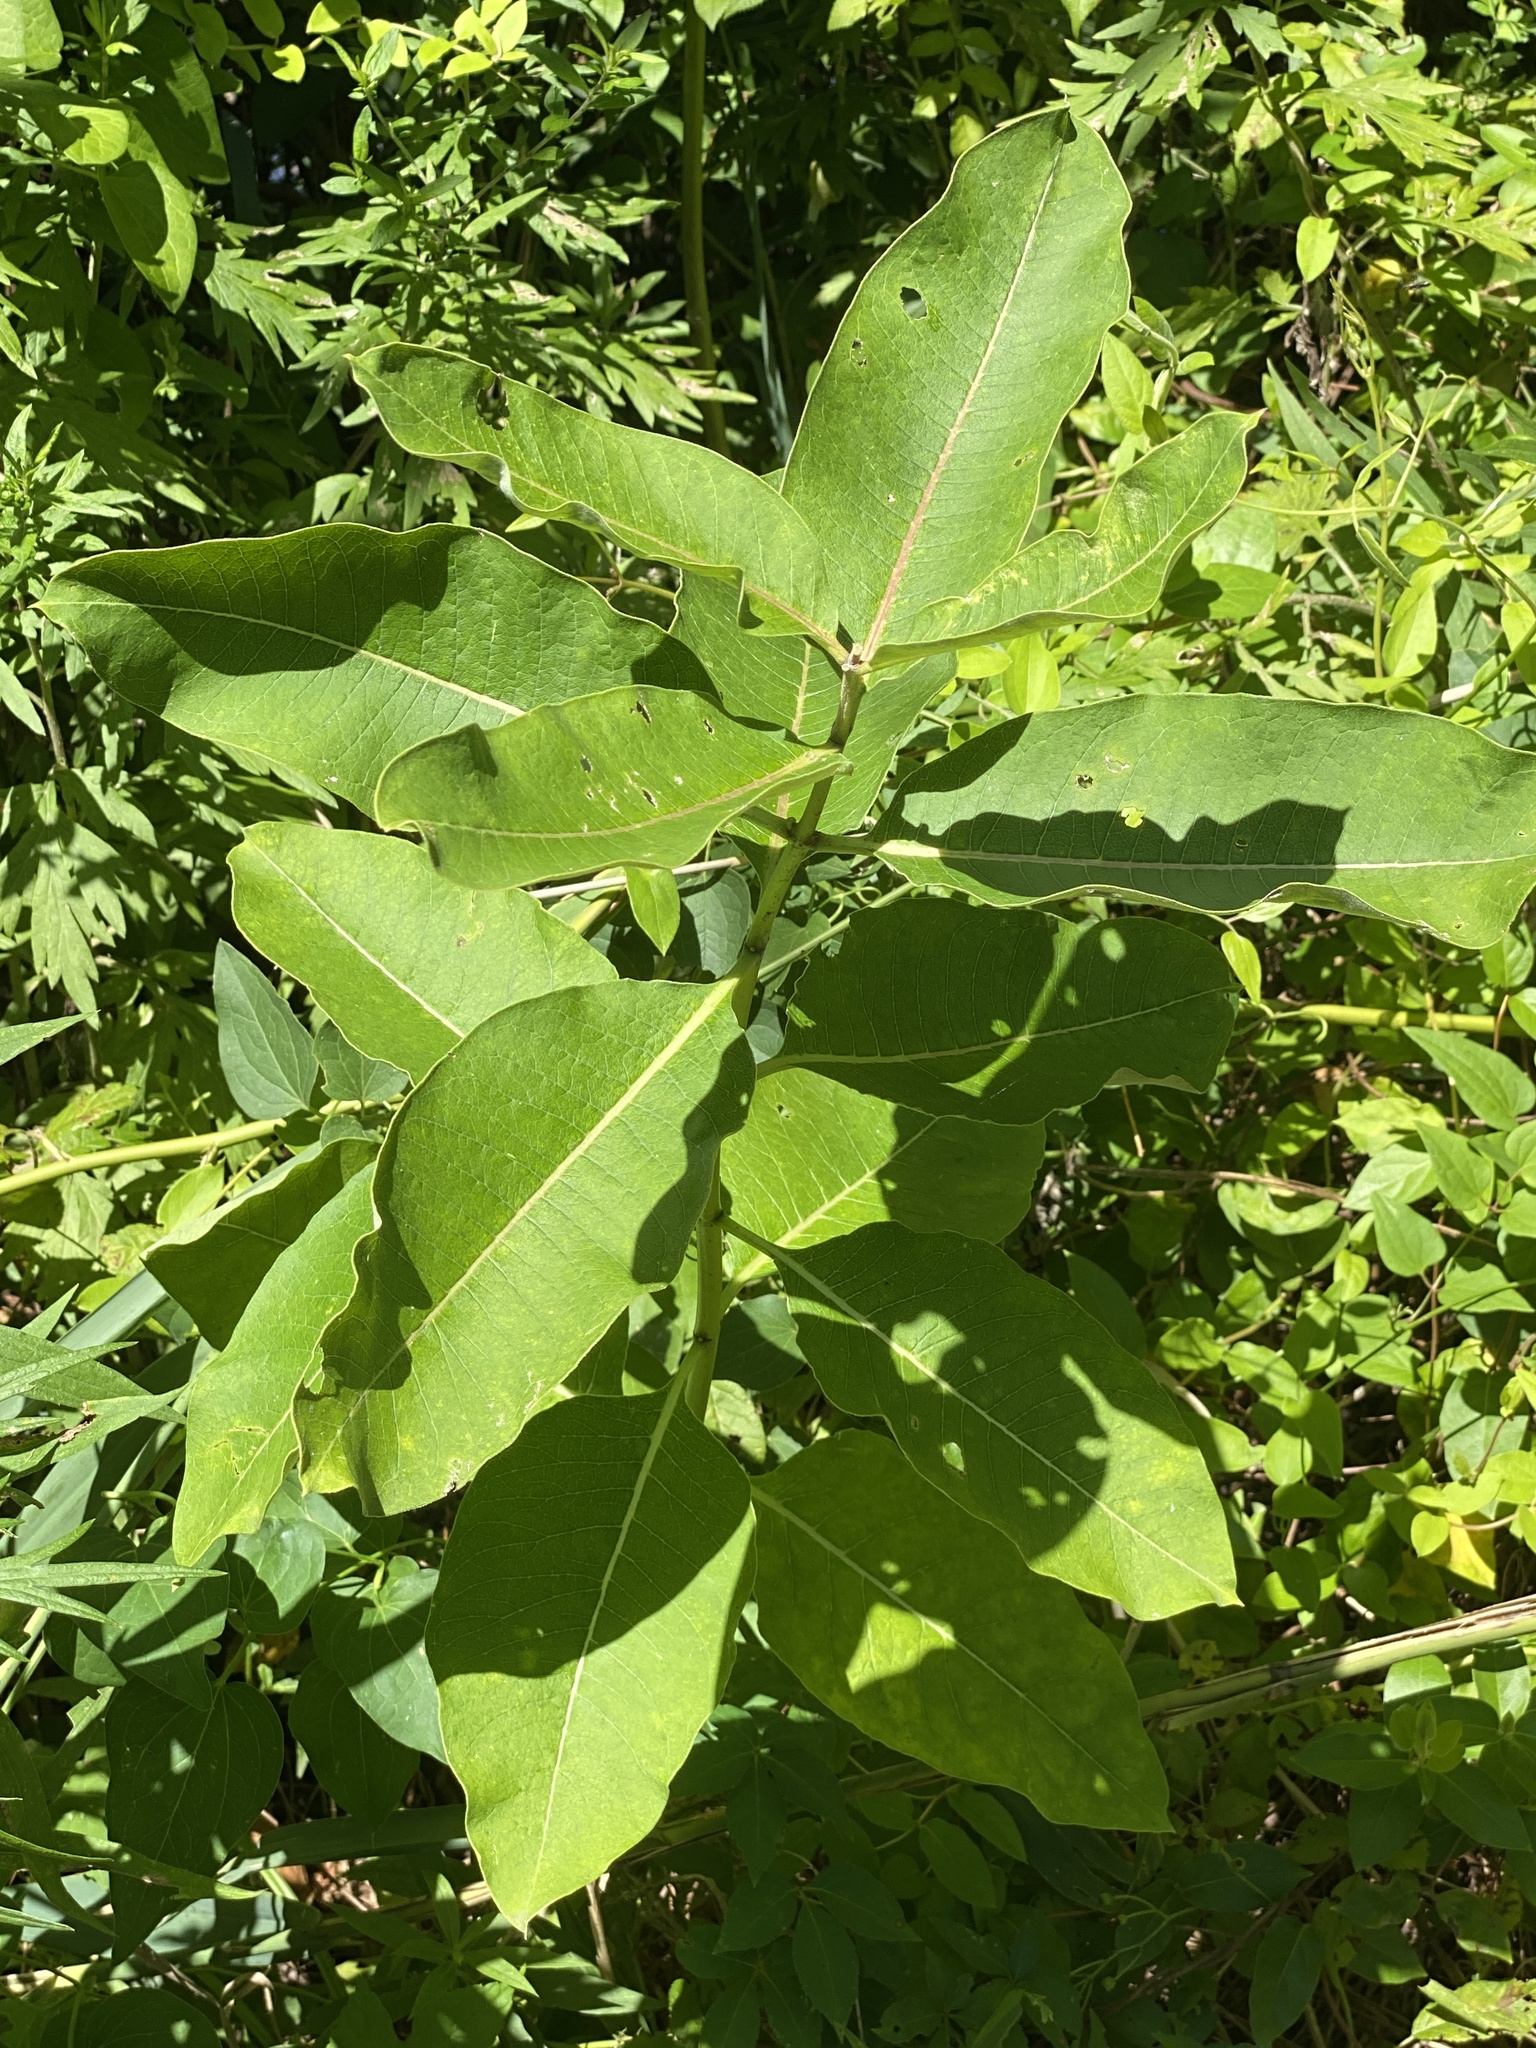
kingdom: Plantae
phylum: Tracheophyta
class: Magnoliopsida
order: Gentianales
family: Apocynaceae
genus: Asclepias
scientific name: Asclepias syriaca
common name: Common milkweed
